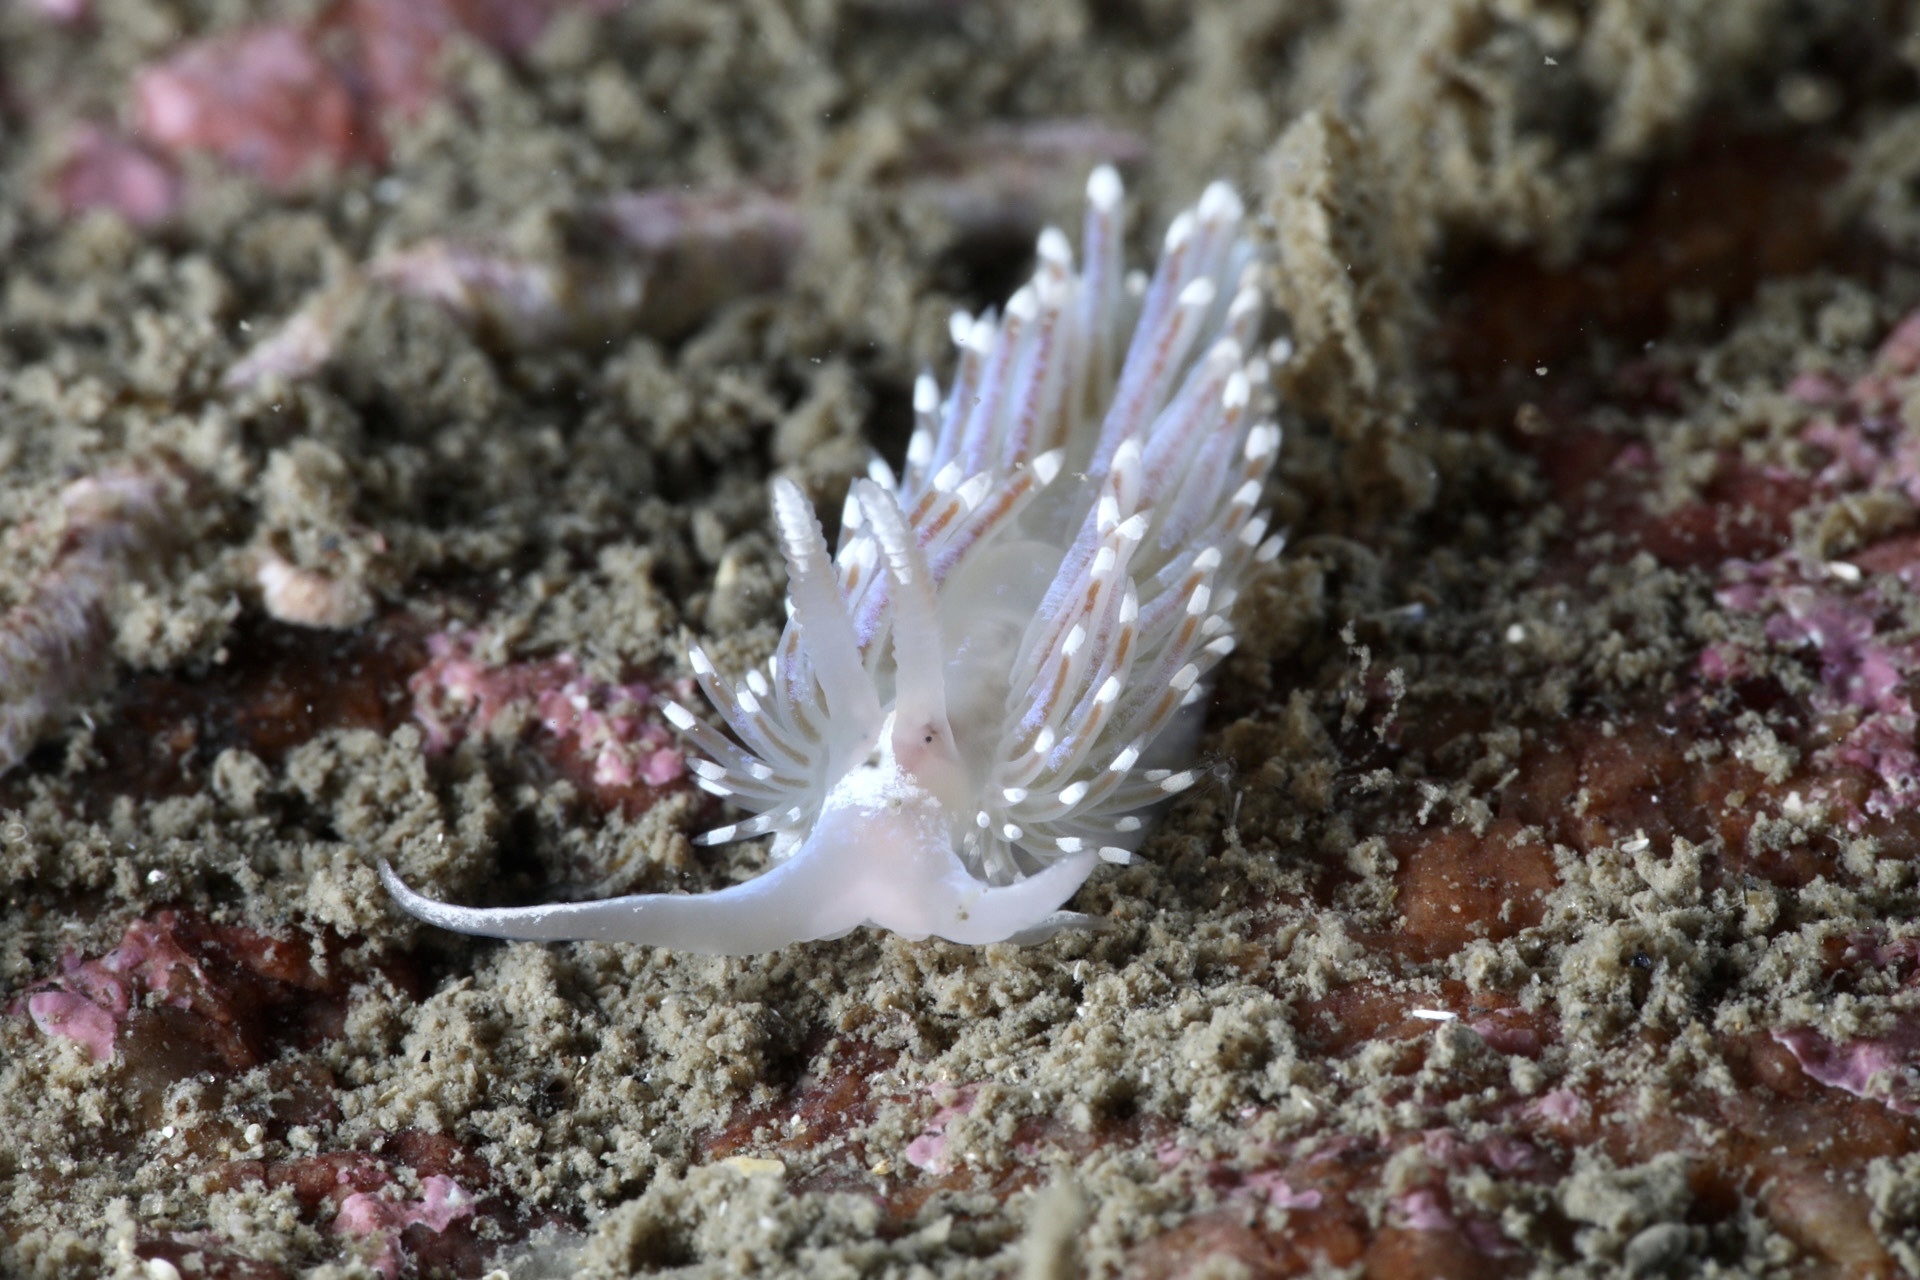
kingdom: Animalia
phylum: Mollusca
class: Gastropoda
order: Nudibranchia
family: Facelinidae
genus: Facelina
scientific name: Facelina bostoniensis
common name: Boston facelina
